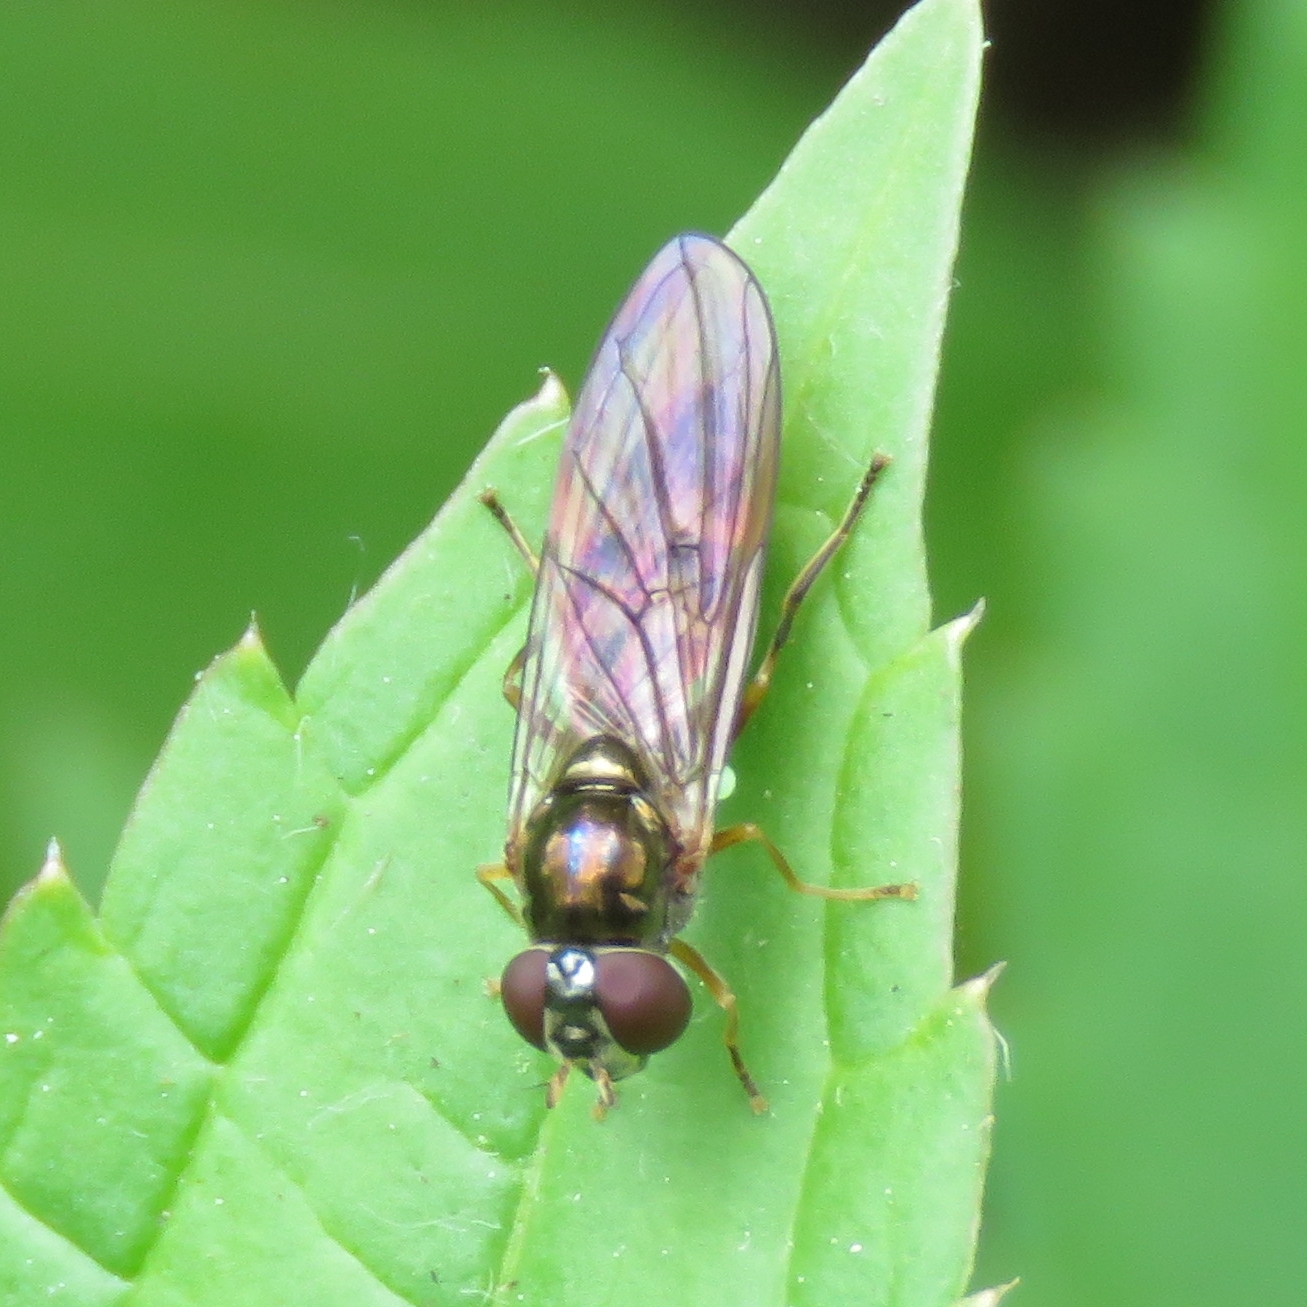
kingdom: Animalia
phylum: Arthropoda
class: Insecta
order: Diptera
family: Syrphidae
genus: Melanostoma
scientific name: Melanostoma scalare
